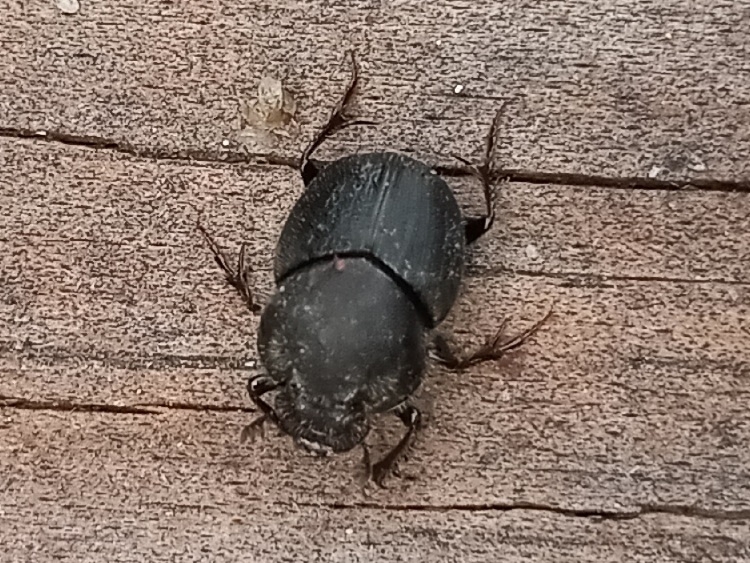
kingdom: Animalia
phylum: Arthropoda
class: Insecta
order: Coleoptera
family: Scarabaeidae
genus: Onthophagus
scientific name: Onthophagus hecate
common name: Scooped scarab
